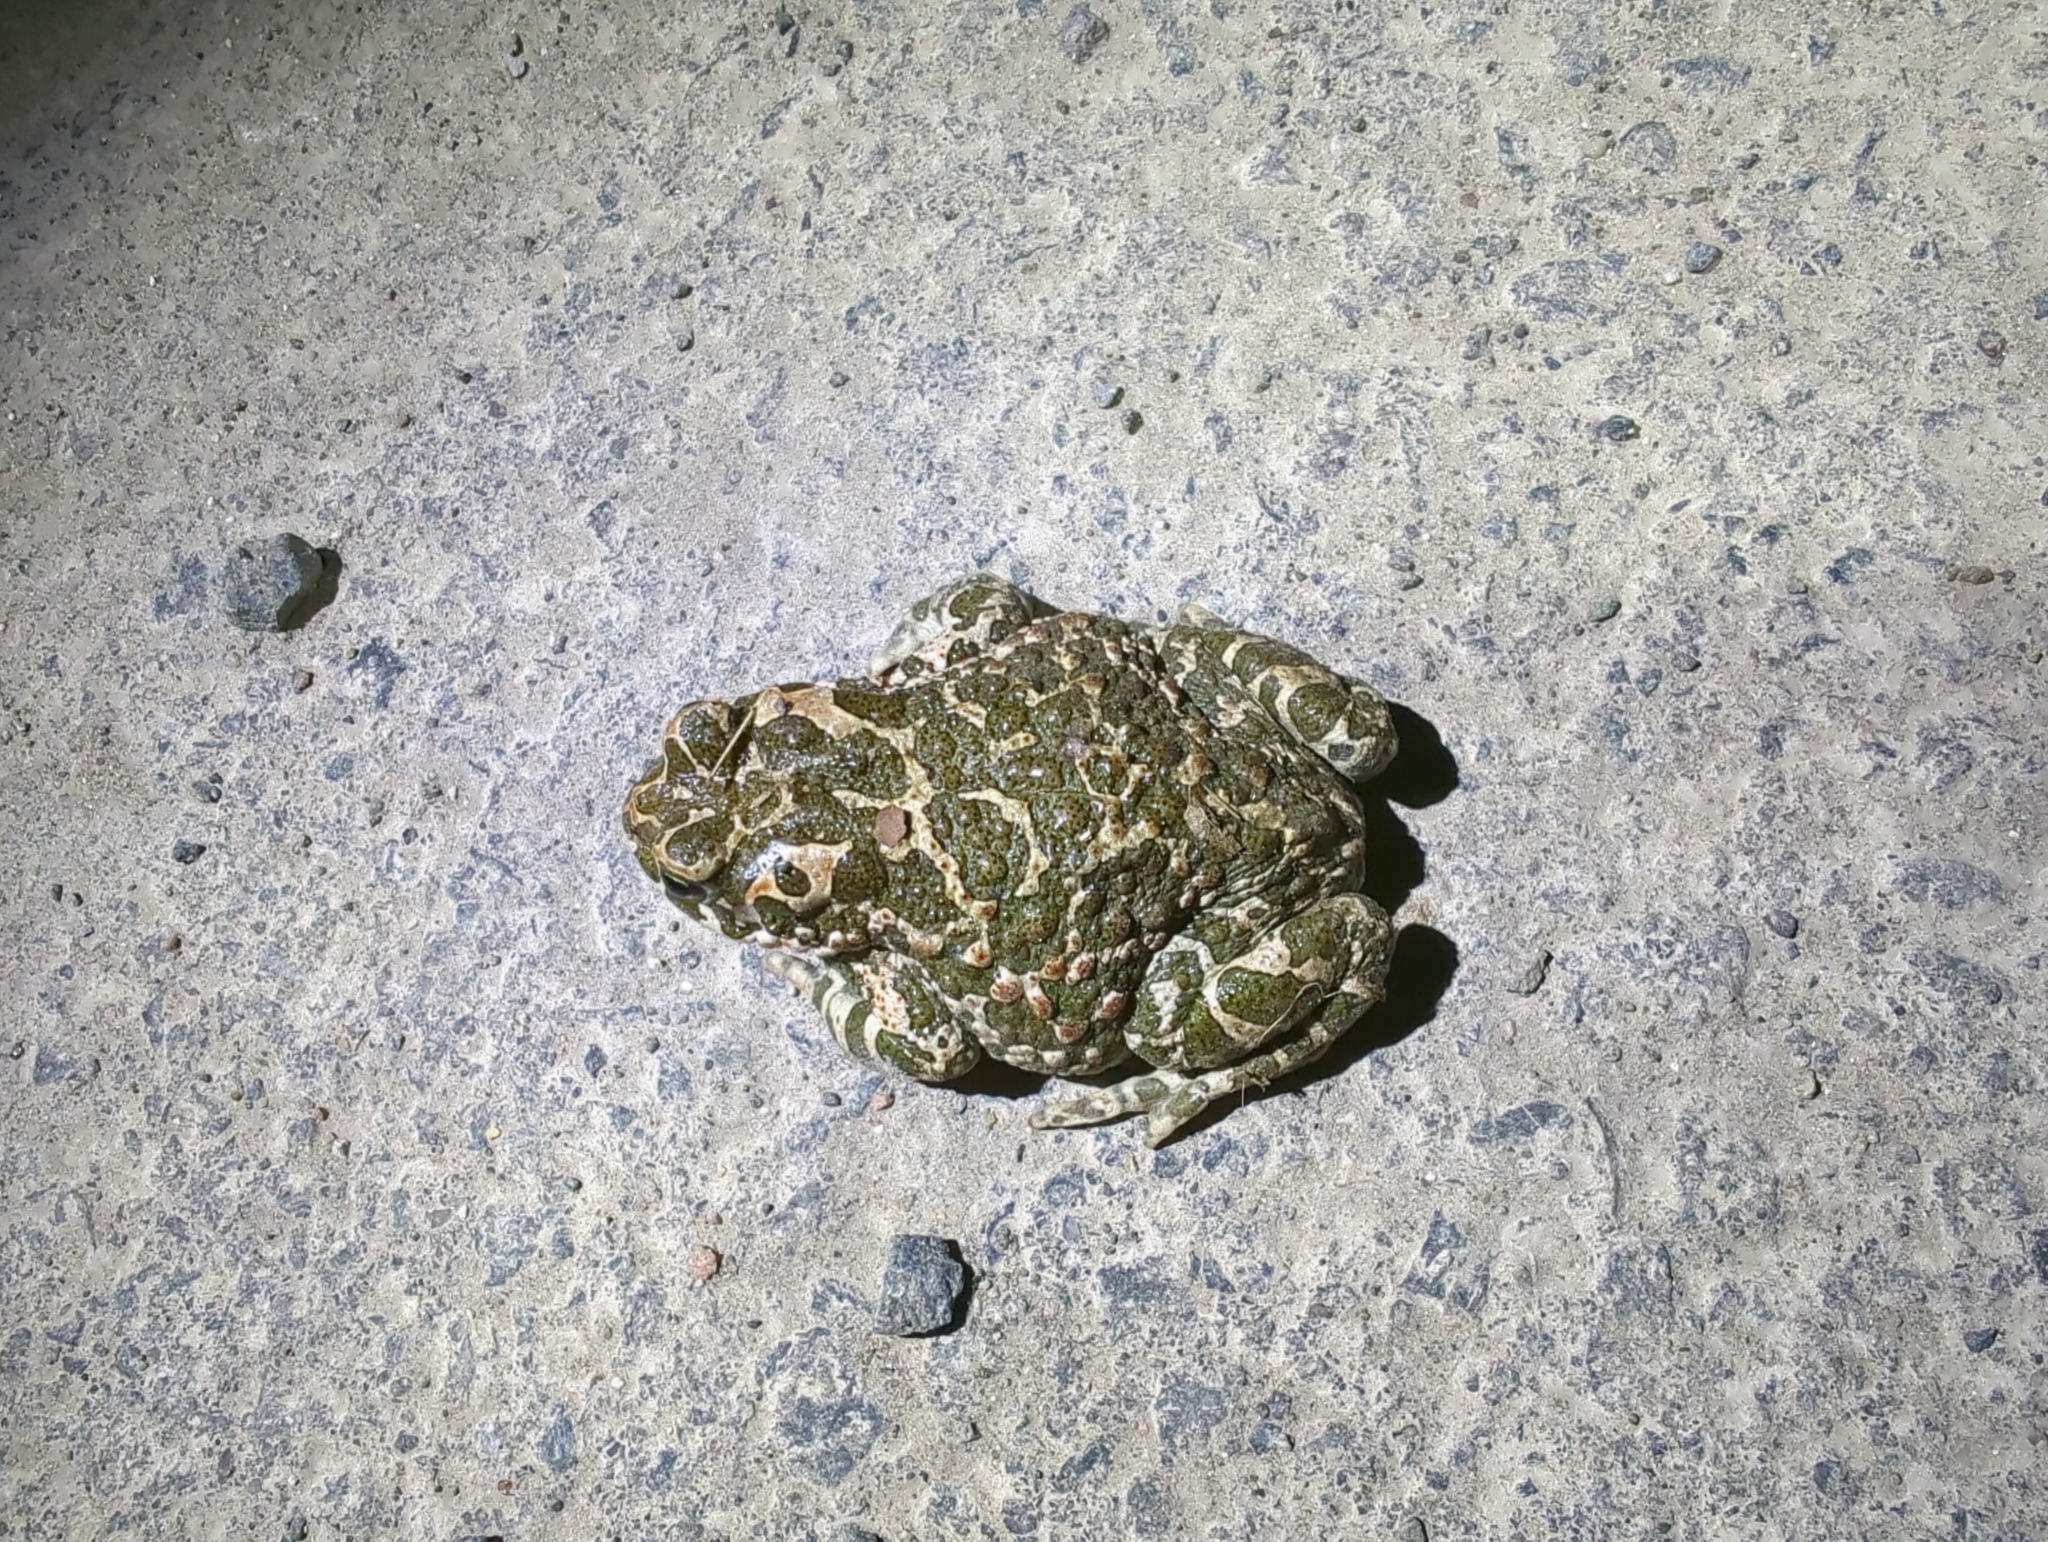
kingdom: Animalia
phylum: Chordata
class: Amphibia
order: Anura
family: Bufonidae
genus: Bufotes
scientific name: Bufotes viridis
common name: European green toad
